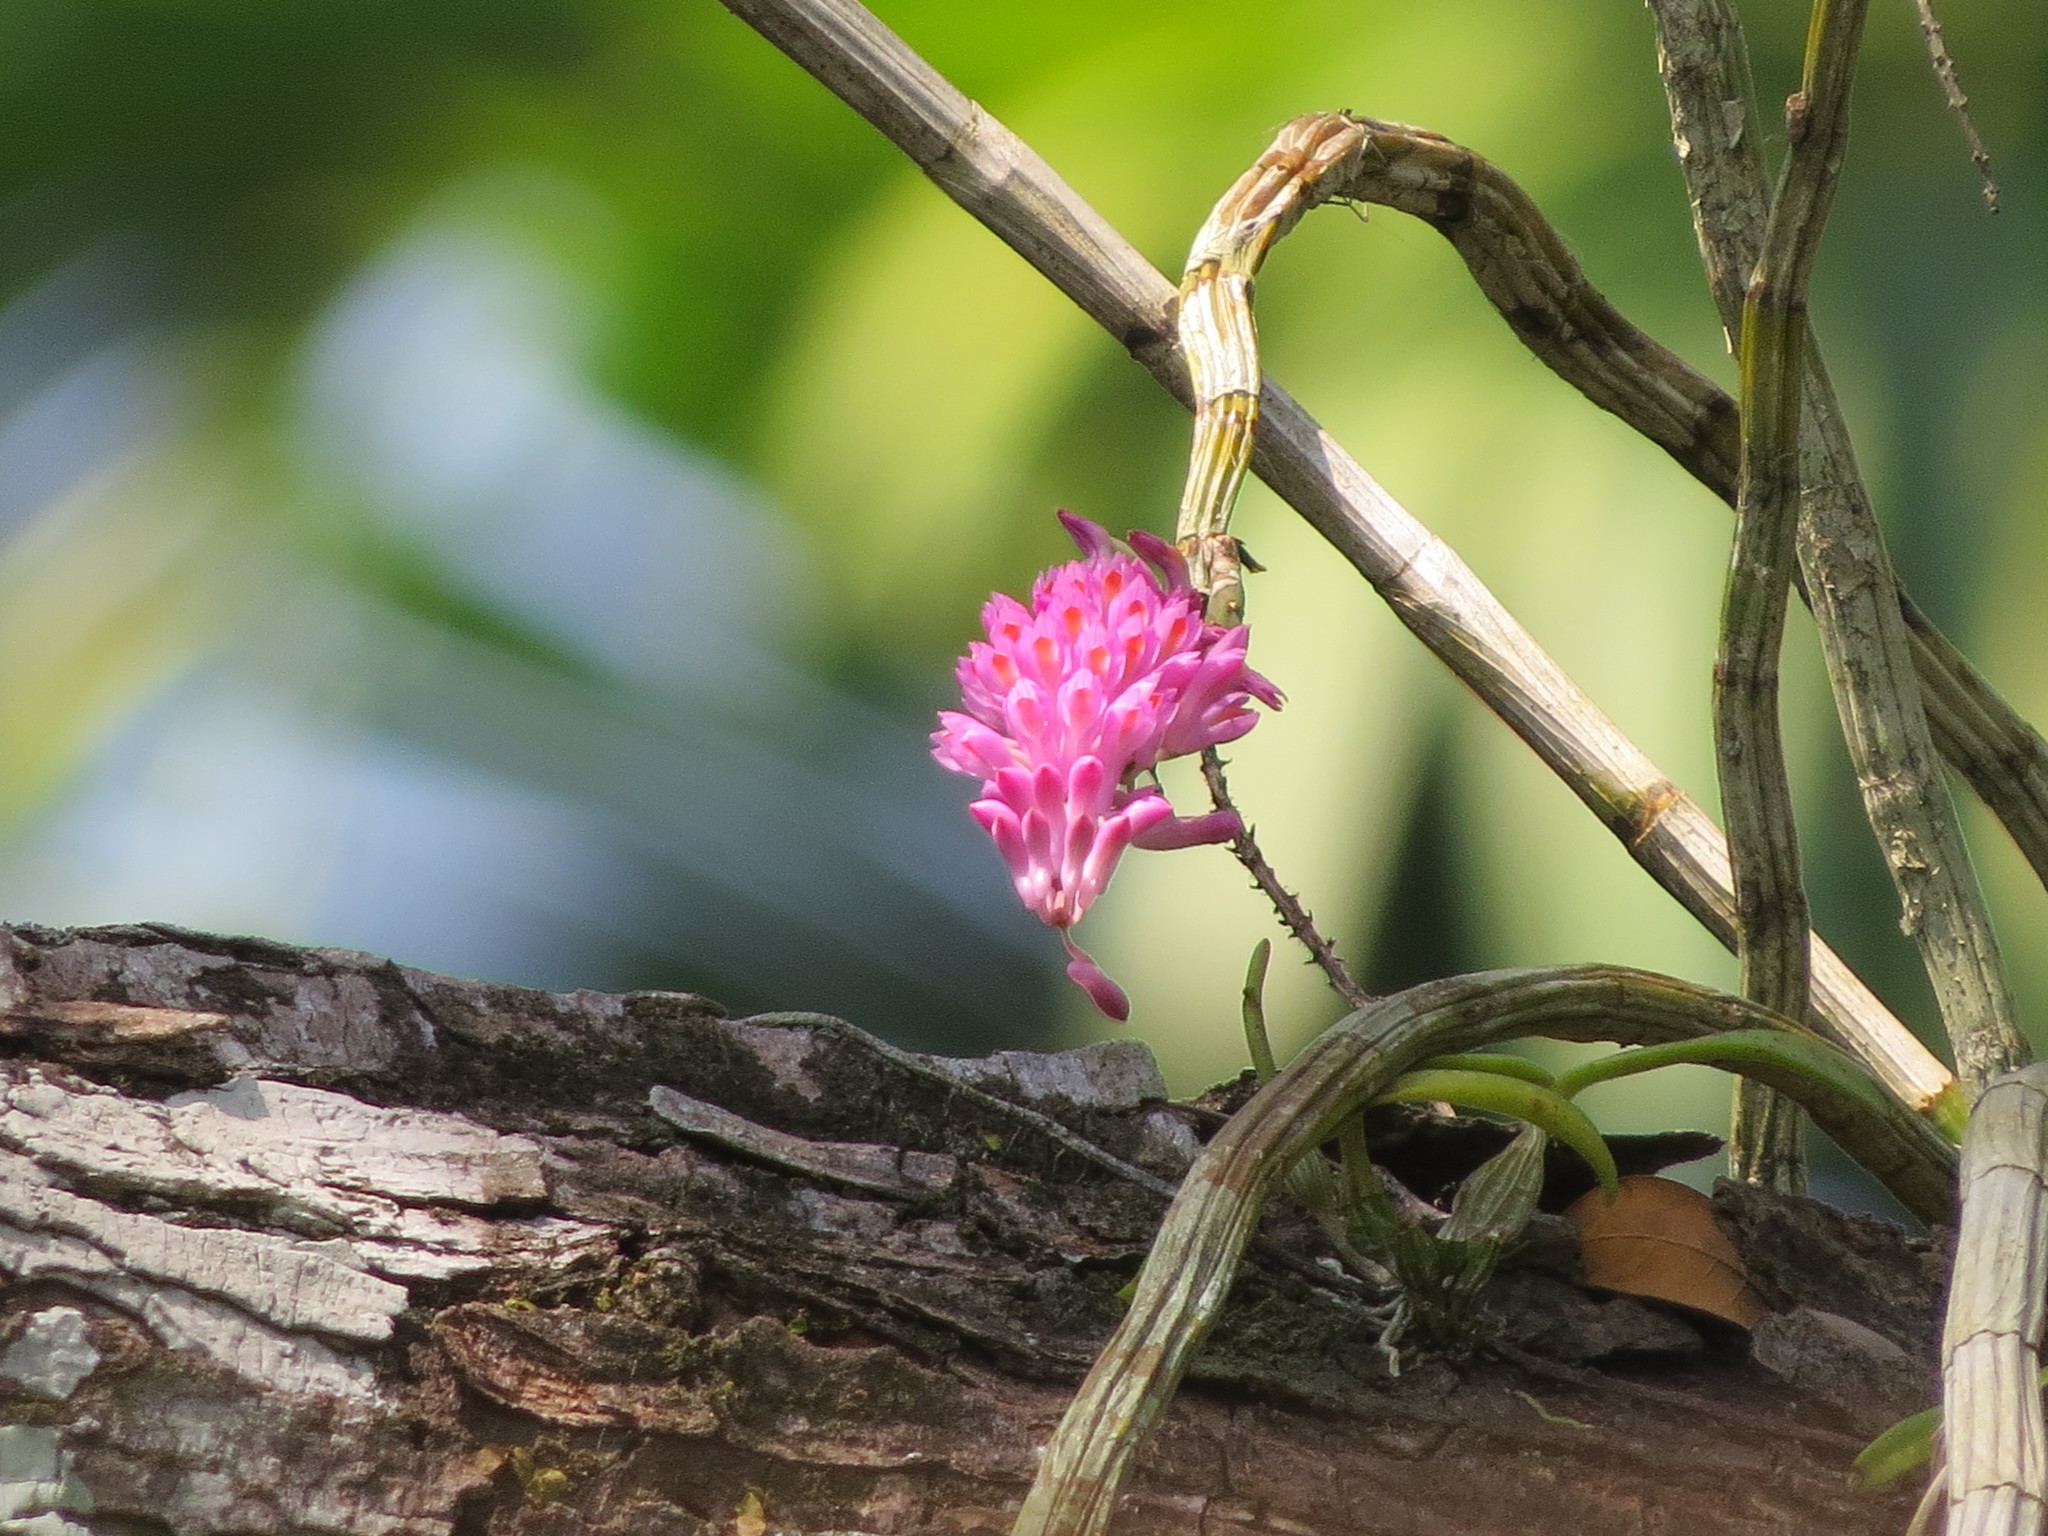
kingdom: Plantae
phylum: Tracheophyta
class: Liliopsida
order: Asparagales
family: Orchidaceae
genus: Dendrobium
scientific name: Dendrobium secundum
